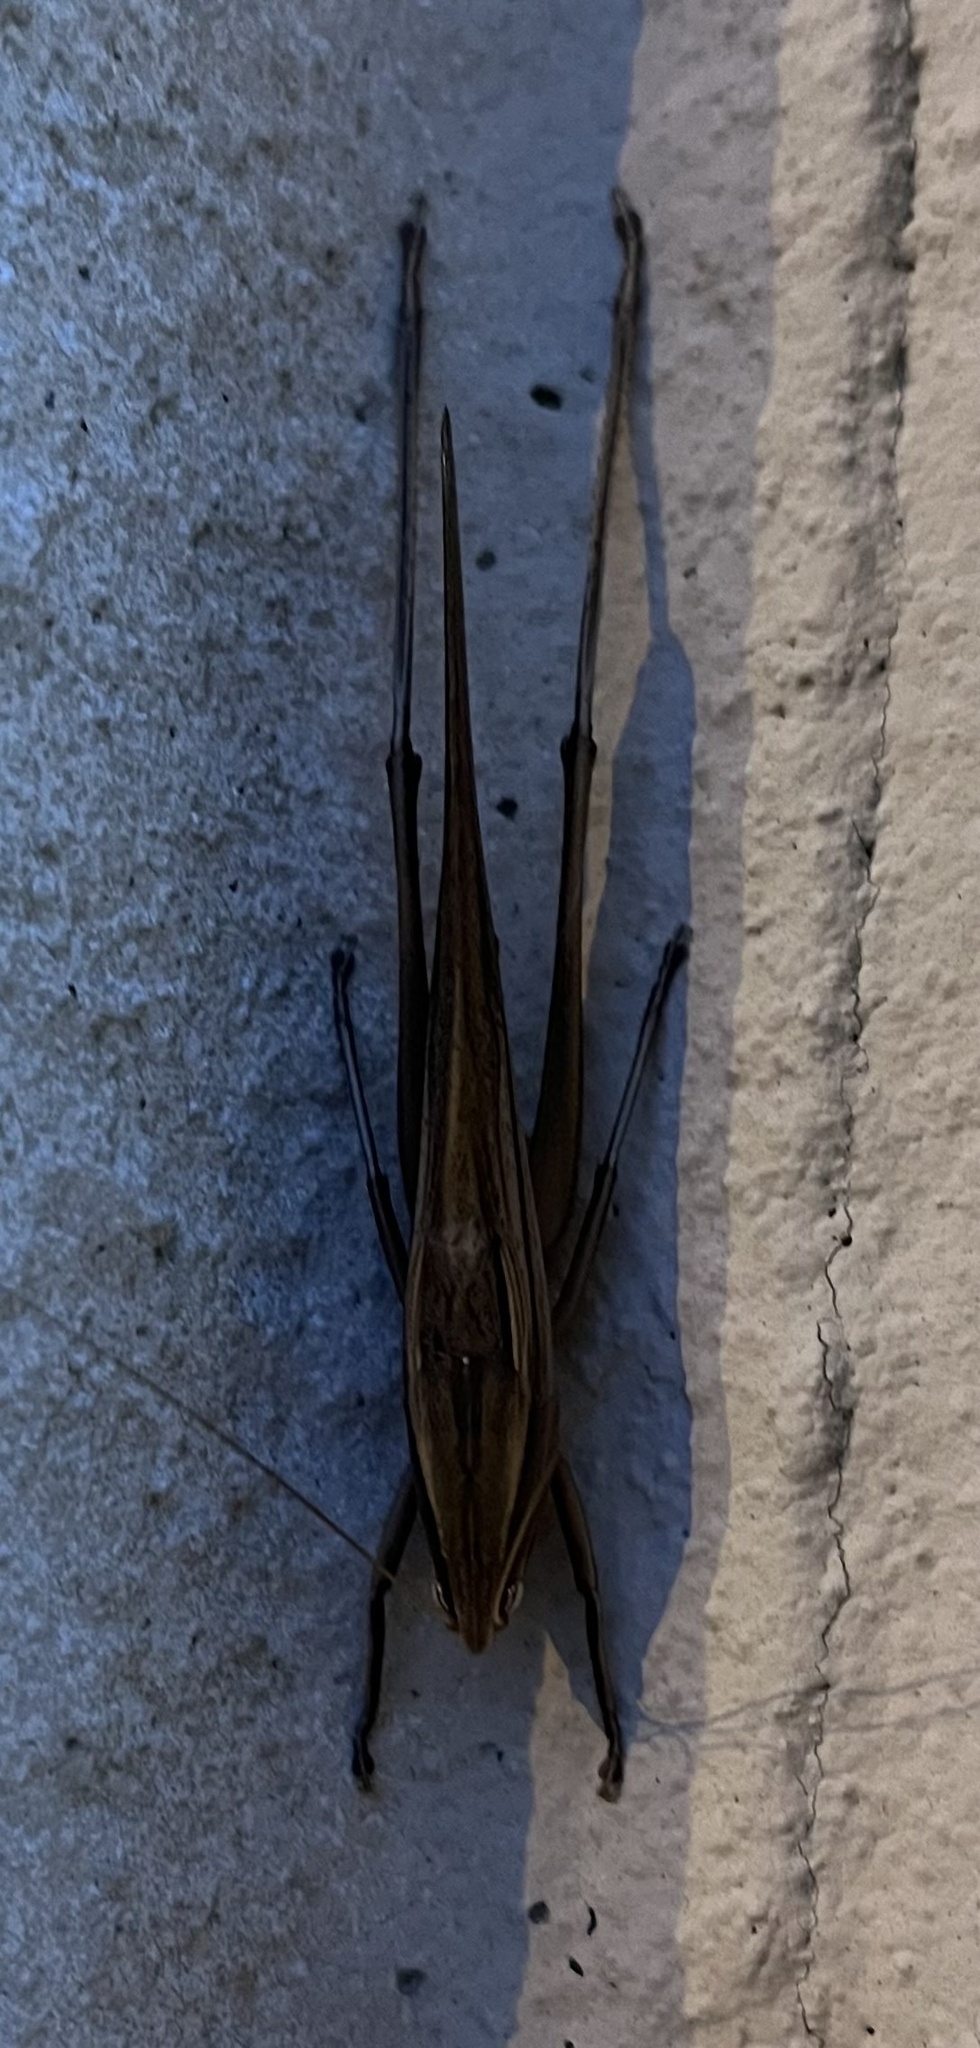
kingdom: Animalia
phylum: Arthropoda
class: Insecta
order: Orthoptera
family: Tettigoniidae
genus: Neoconocephalus
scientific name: Neoconocephalus triops
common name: Broad-tipped conehead
